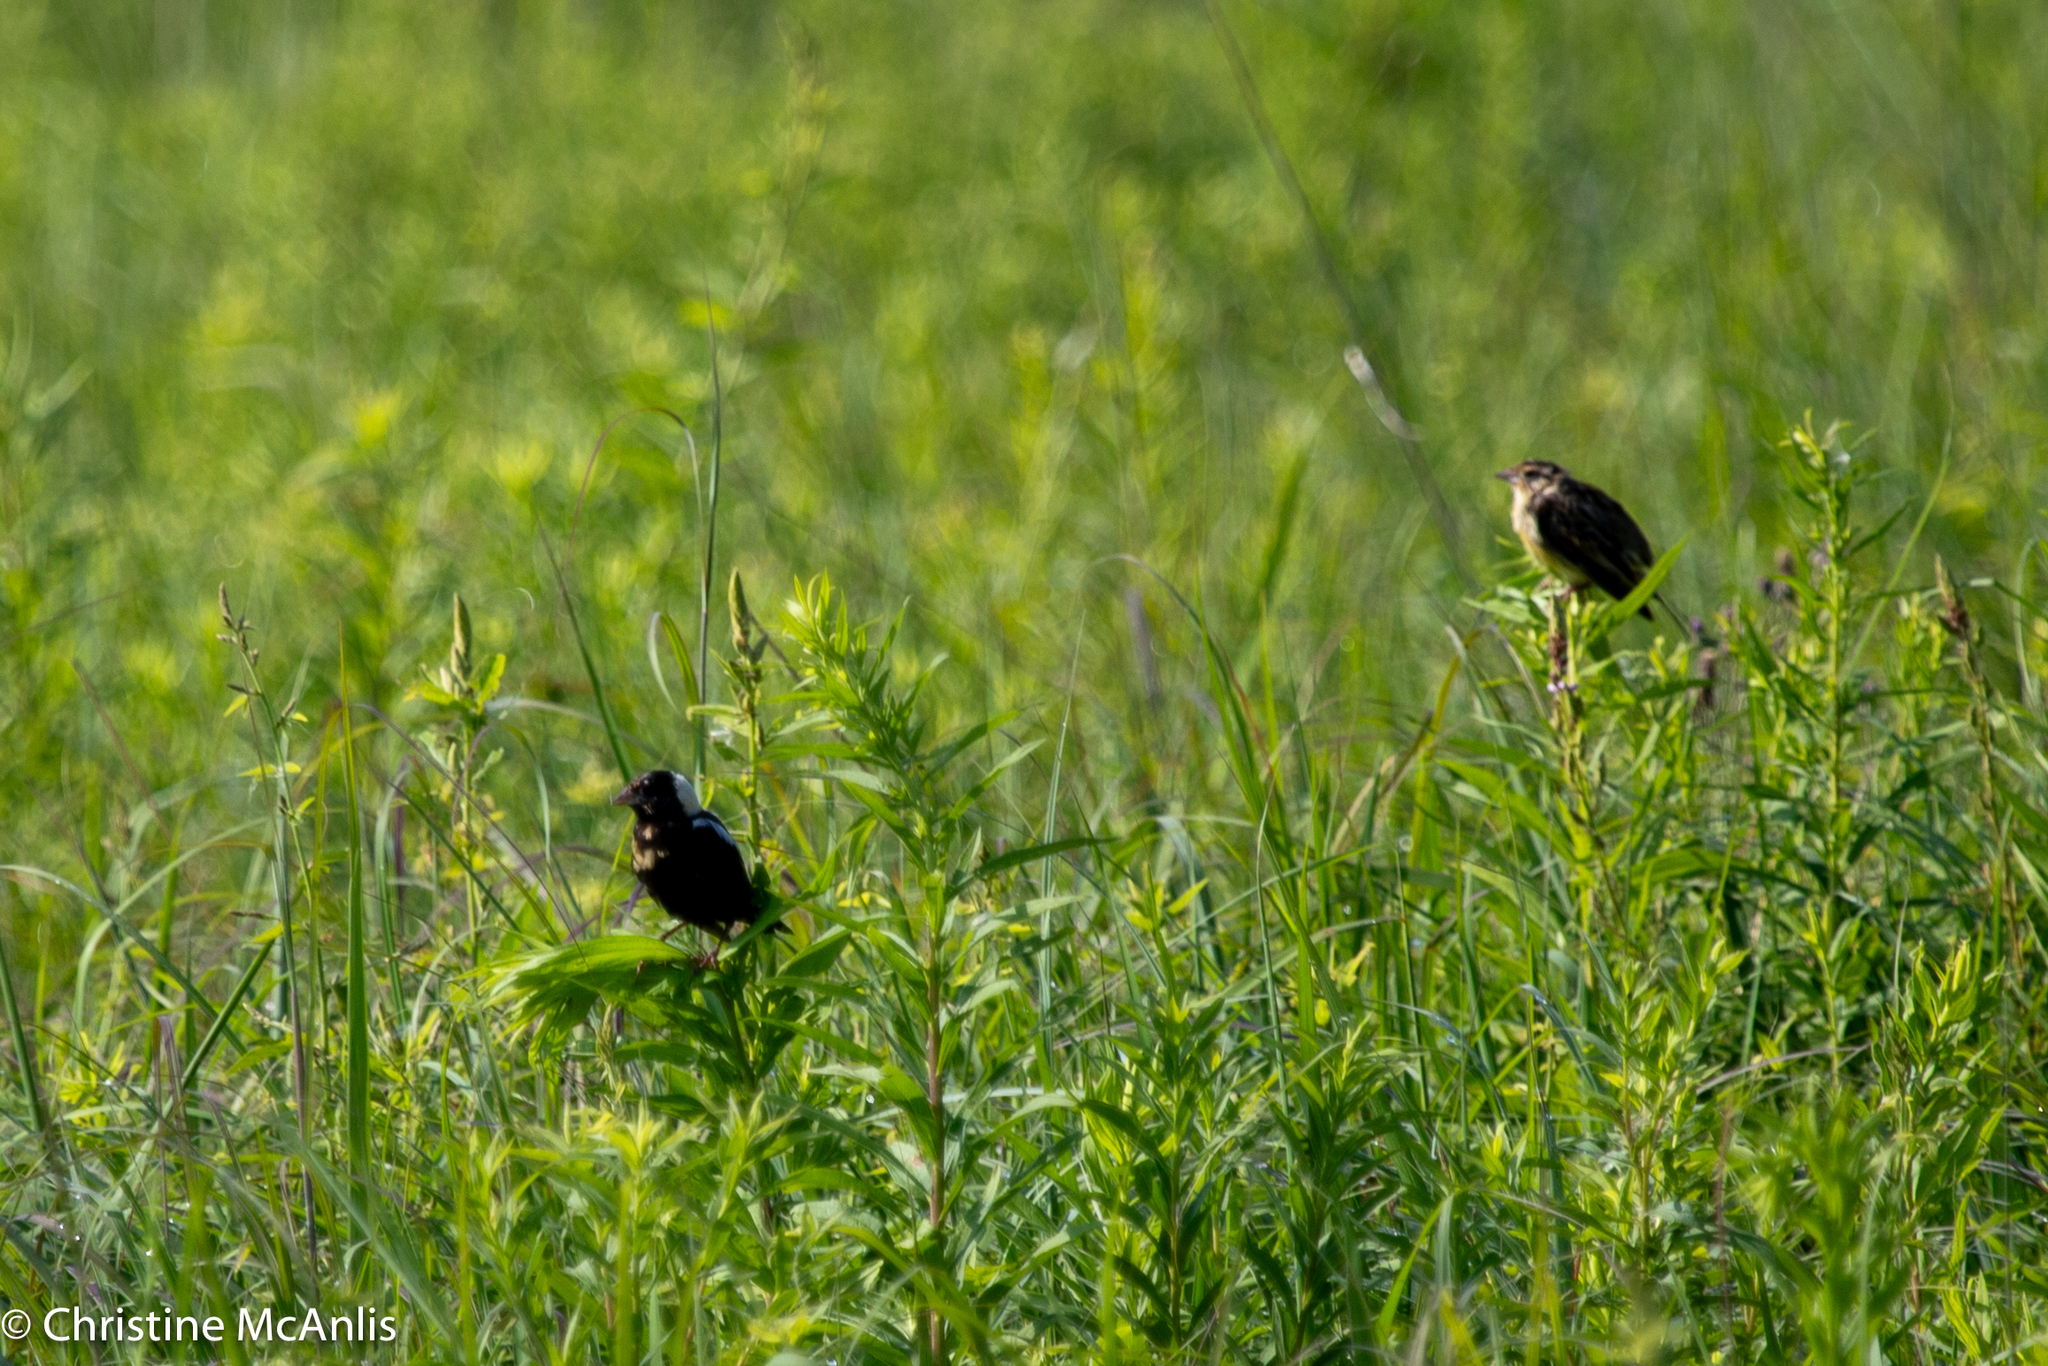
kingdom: Animalia
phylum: Chordata
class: Aves
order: Passeriformes
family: Icteridae
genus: Dolichonyx
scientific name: Dolichonyx oryzivorus
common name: Bobolink
